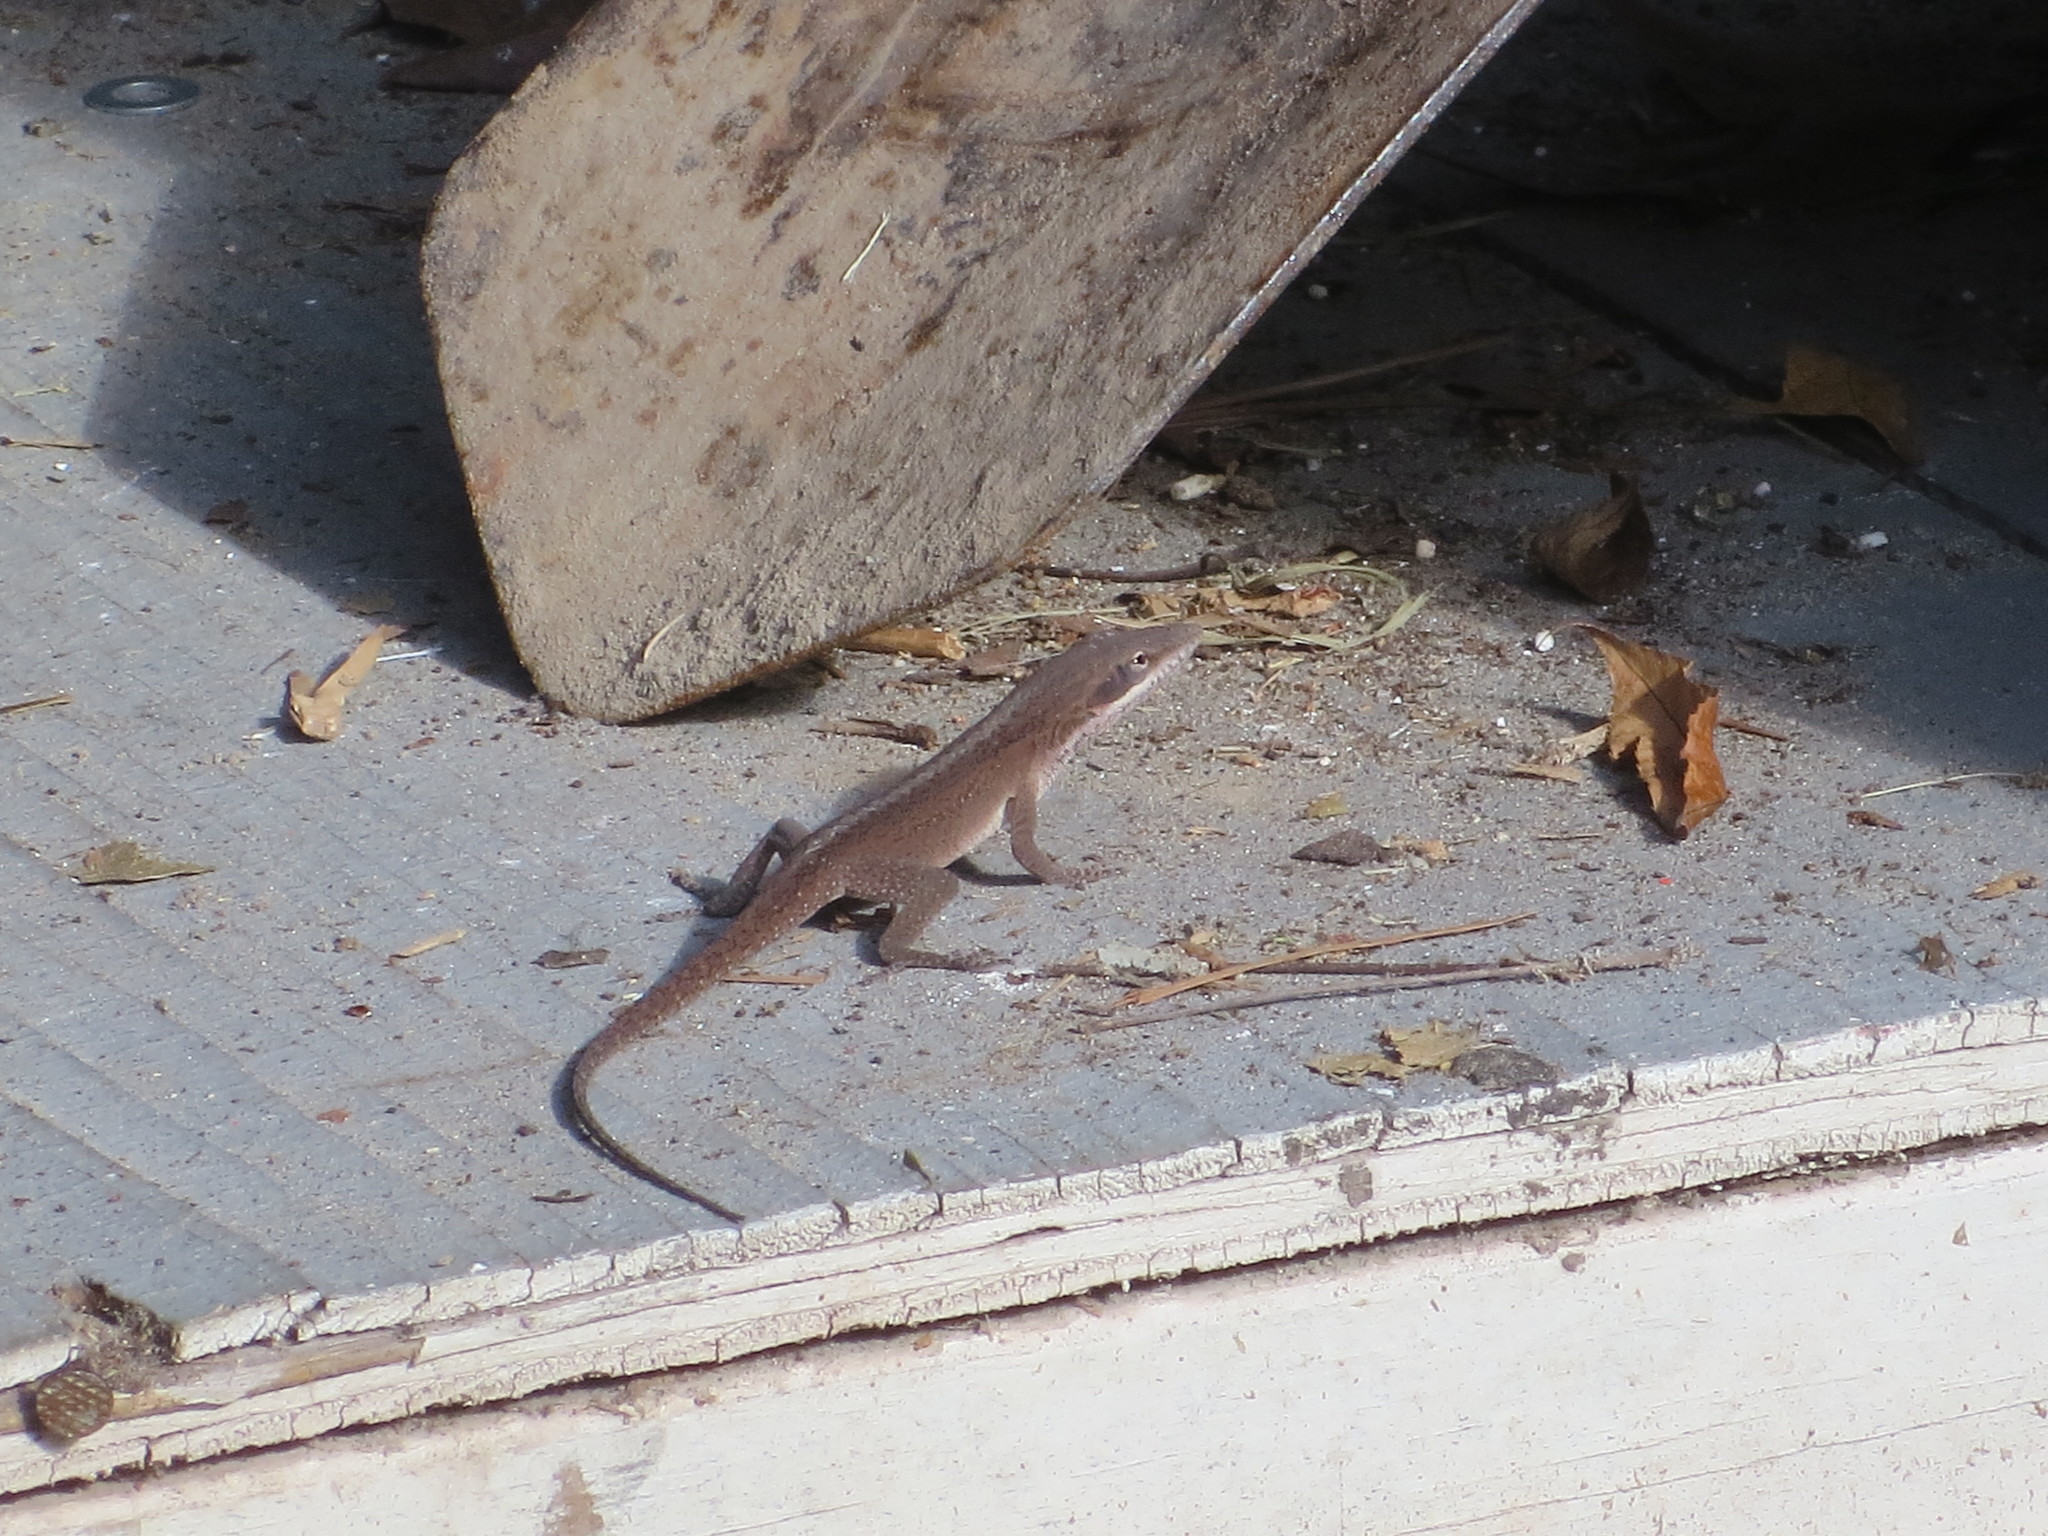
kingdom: Animalia
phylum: Chordata
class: Squamata
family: Dactyloidae
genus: Anolis
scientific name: Anolis carolinensis
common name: Green anole
